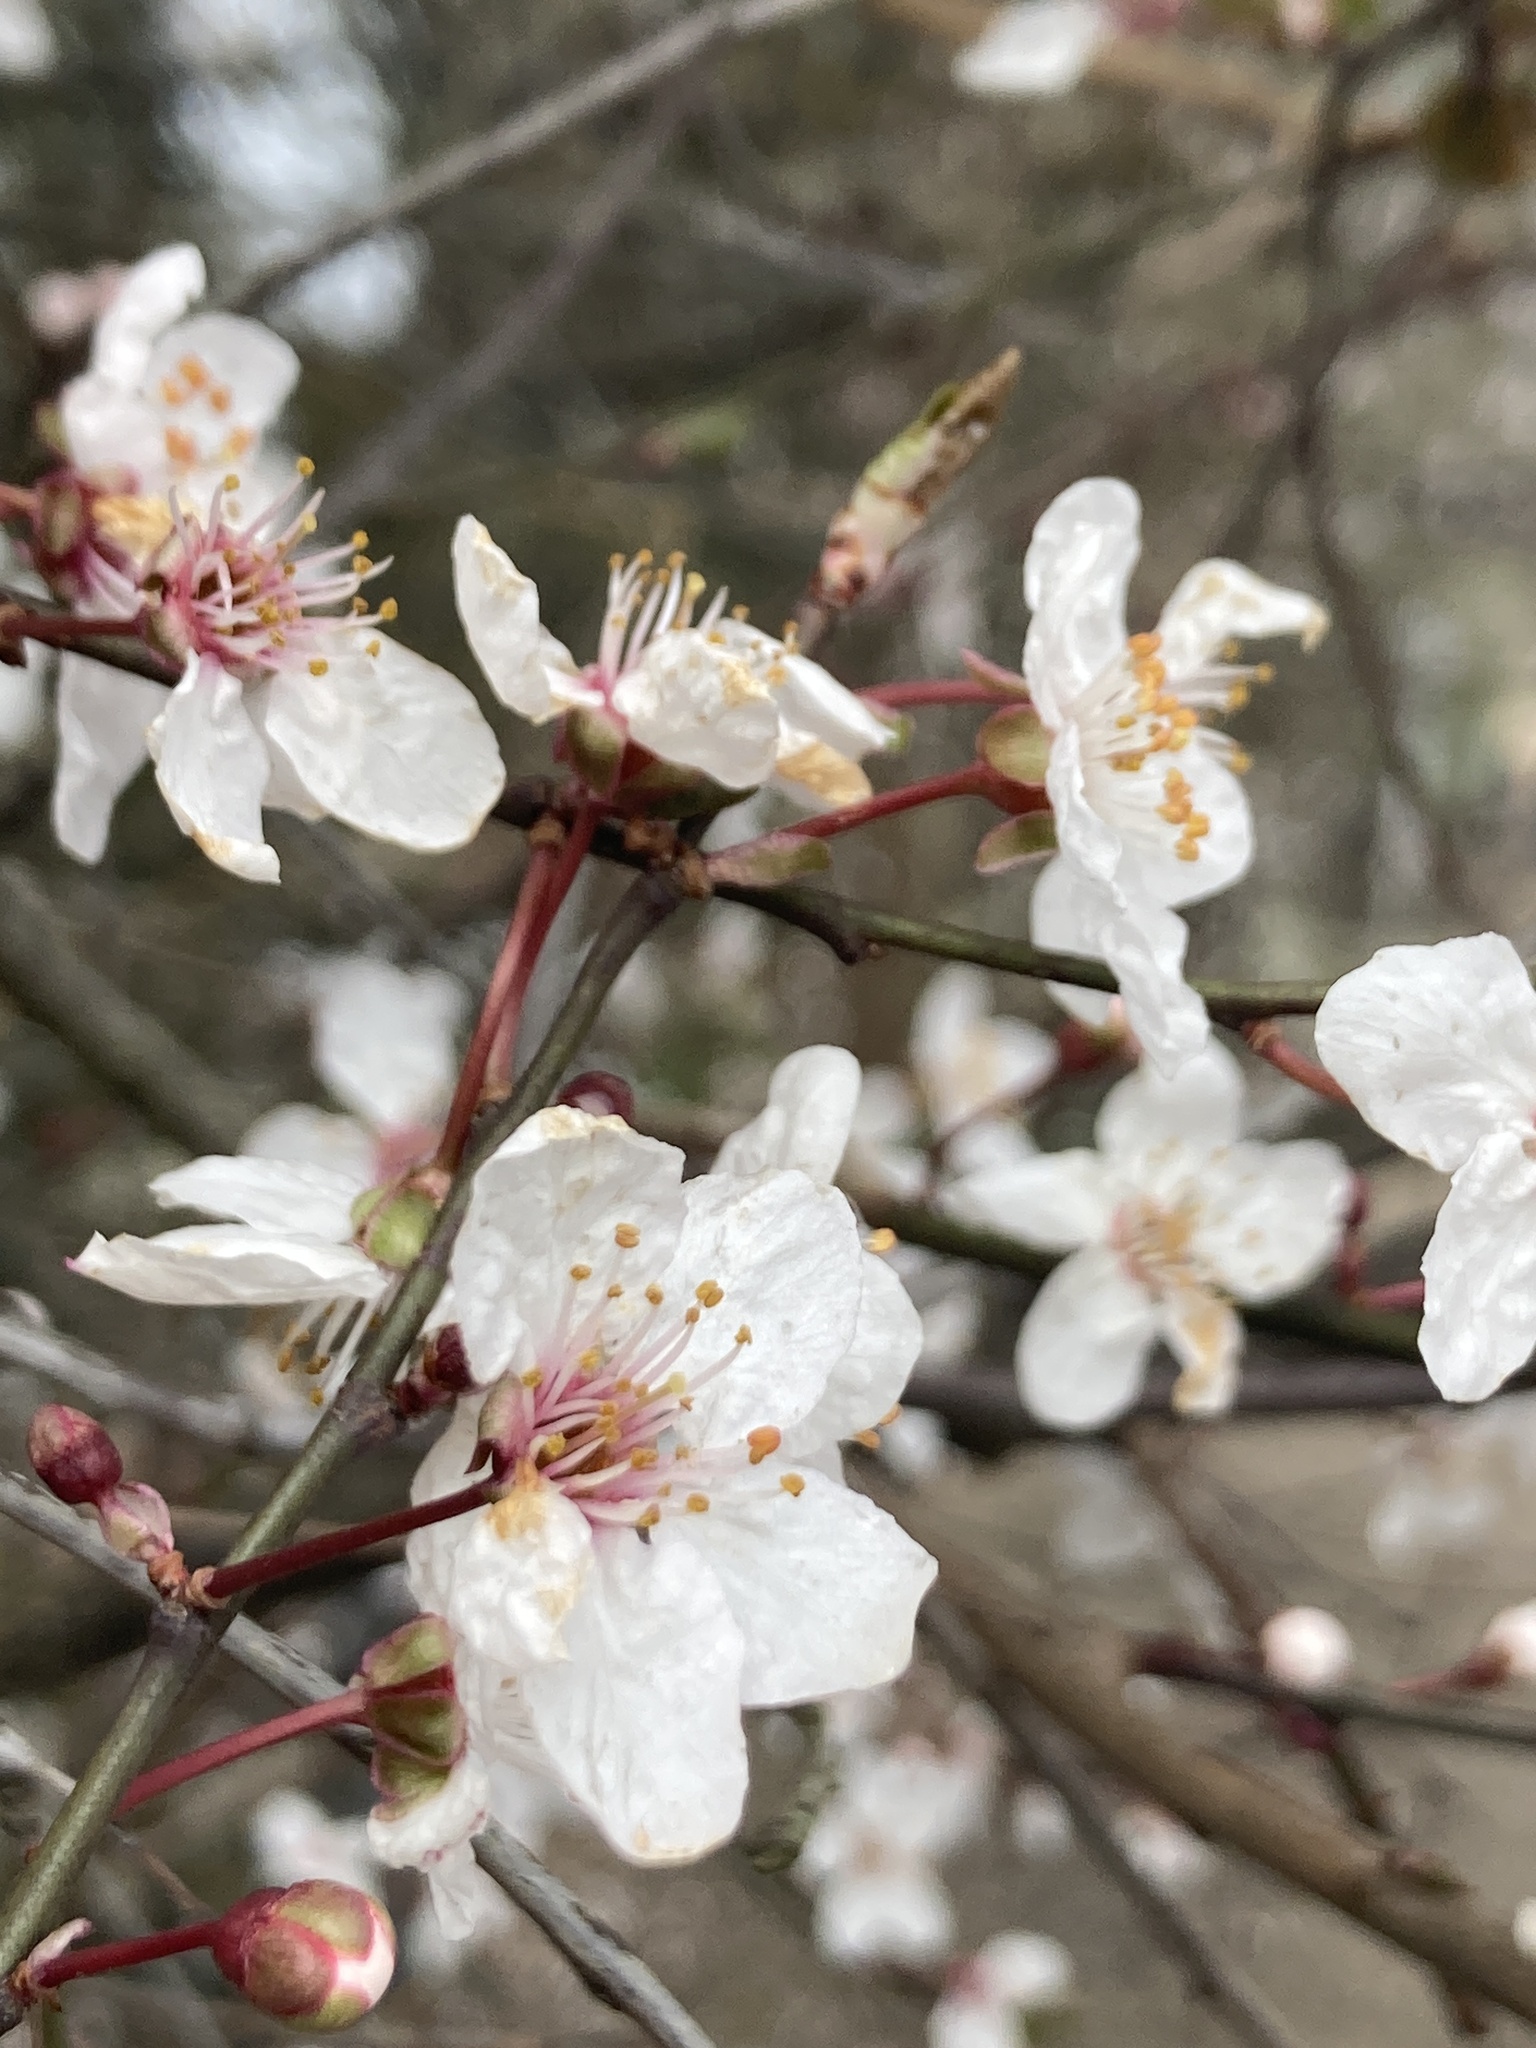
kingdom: Plantae
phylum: Tracheophyta
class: Magnoliopsida
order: Rosales
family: Rosaceae
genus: Prunus
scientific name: Prunus cerasifera
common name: Cherry plum
